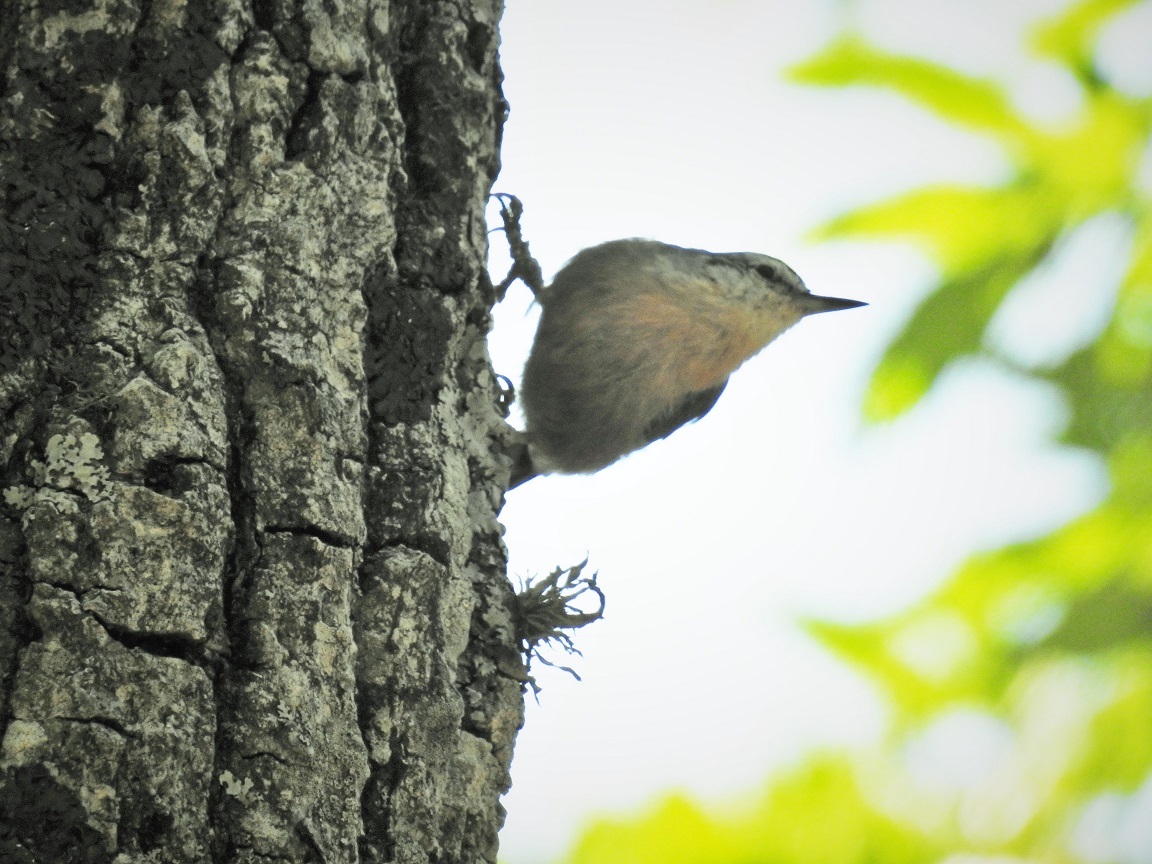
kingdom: Animalia
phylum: Chordata
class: Aves
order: Passeriformes
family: Sittidae
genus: Sitta
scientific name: Sitta ledanti
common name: Algerian nuthatch
